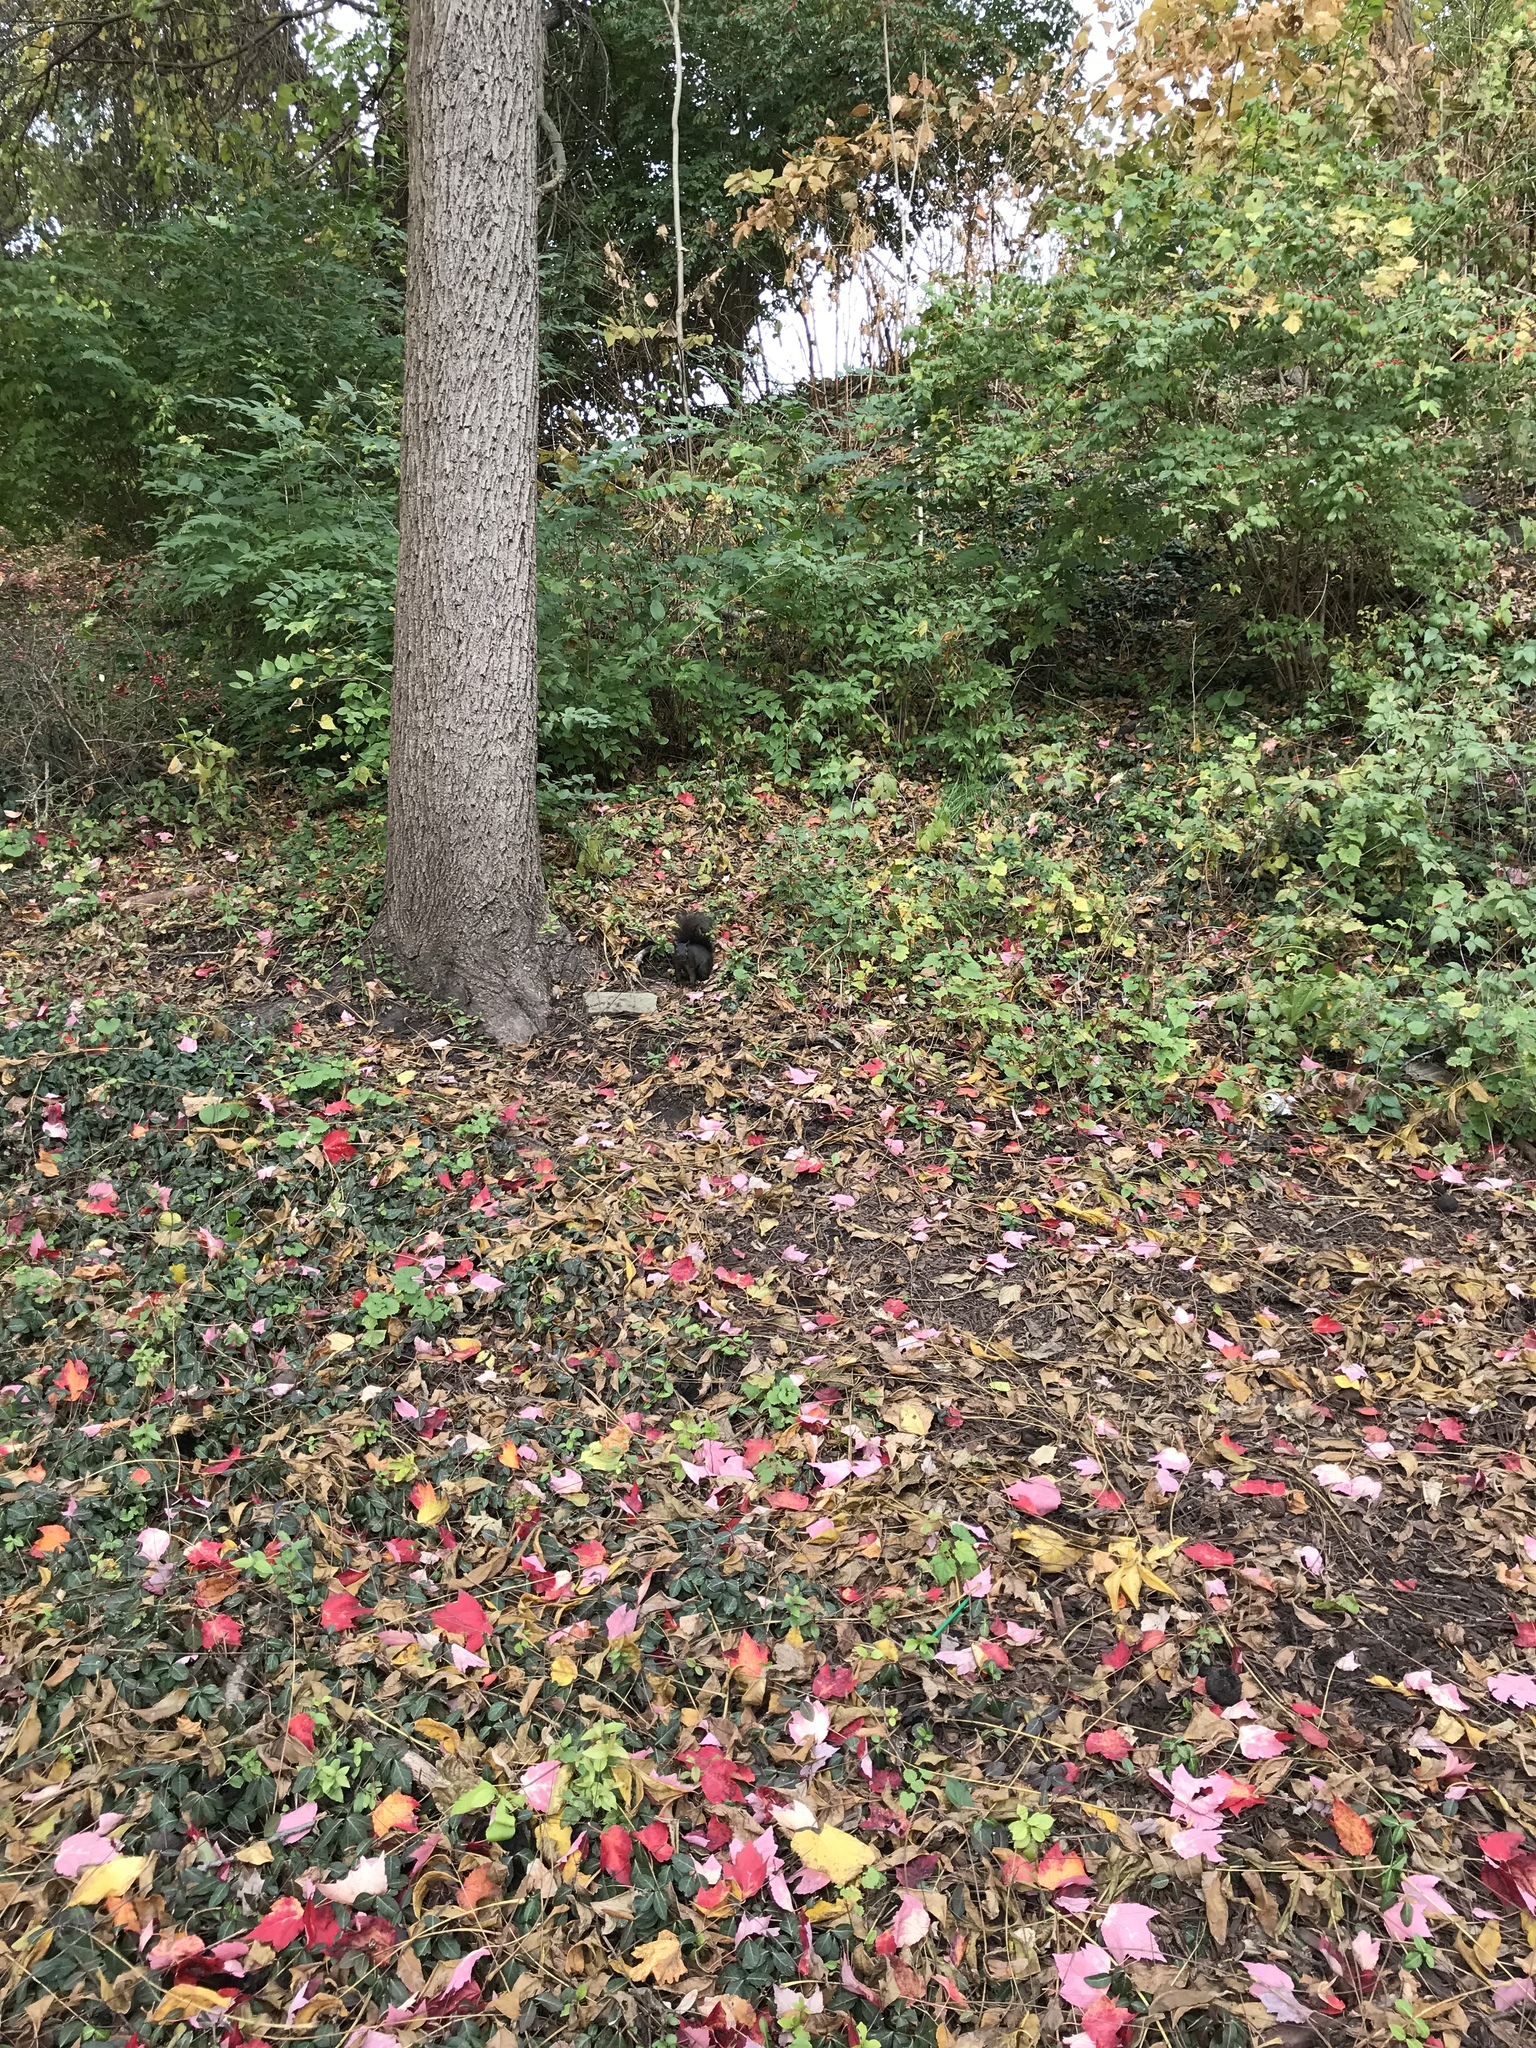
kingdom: Animalia
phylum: Chordata
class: Mammalia
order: Rodentia
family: Sciuridae
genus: Sciurus
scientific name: Sciurus carolinensis
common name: Eastern gray squirrel
